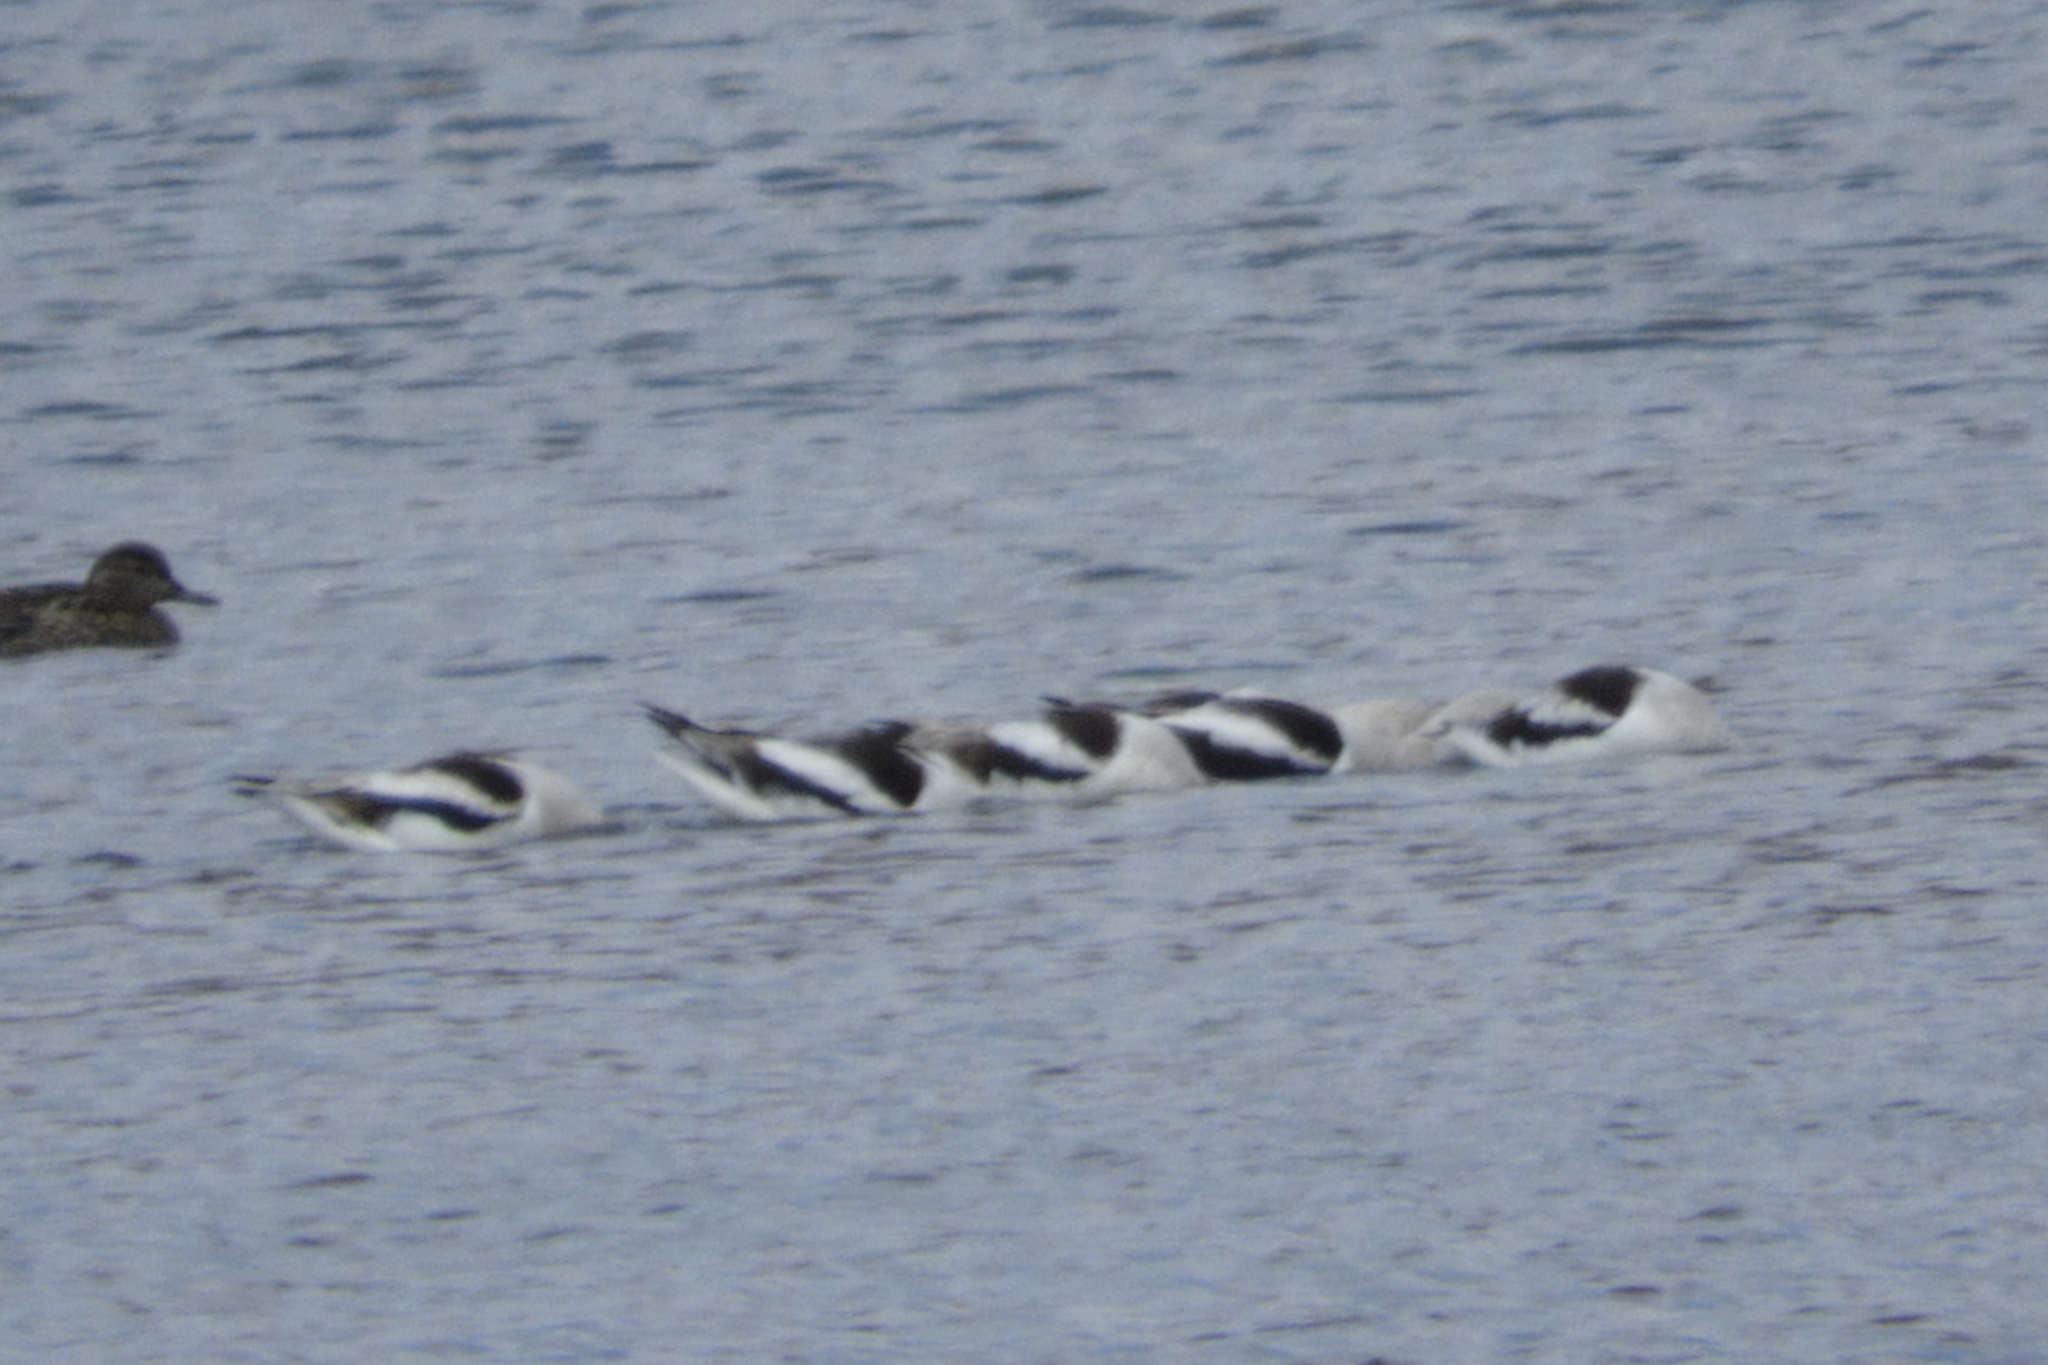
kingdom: Animalia
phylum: Chordata
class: Aves
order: Charadriiformes
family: Recurvirostridae
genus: Recurvirostra
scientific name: Recurvirostra americana
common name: American avocet
